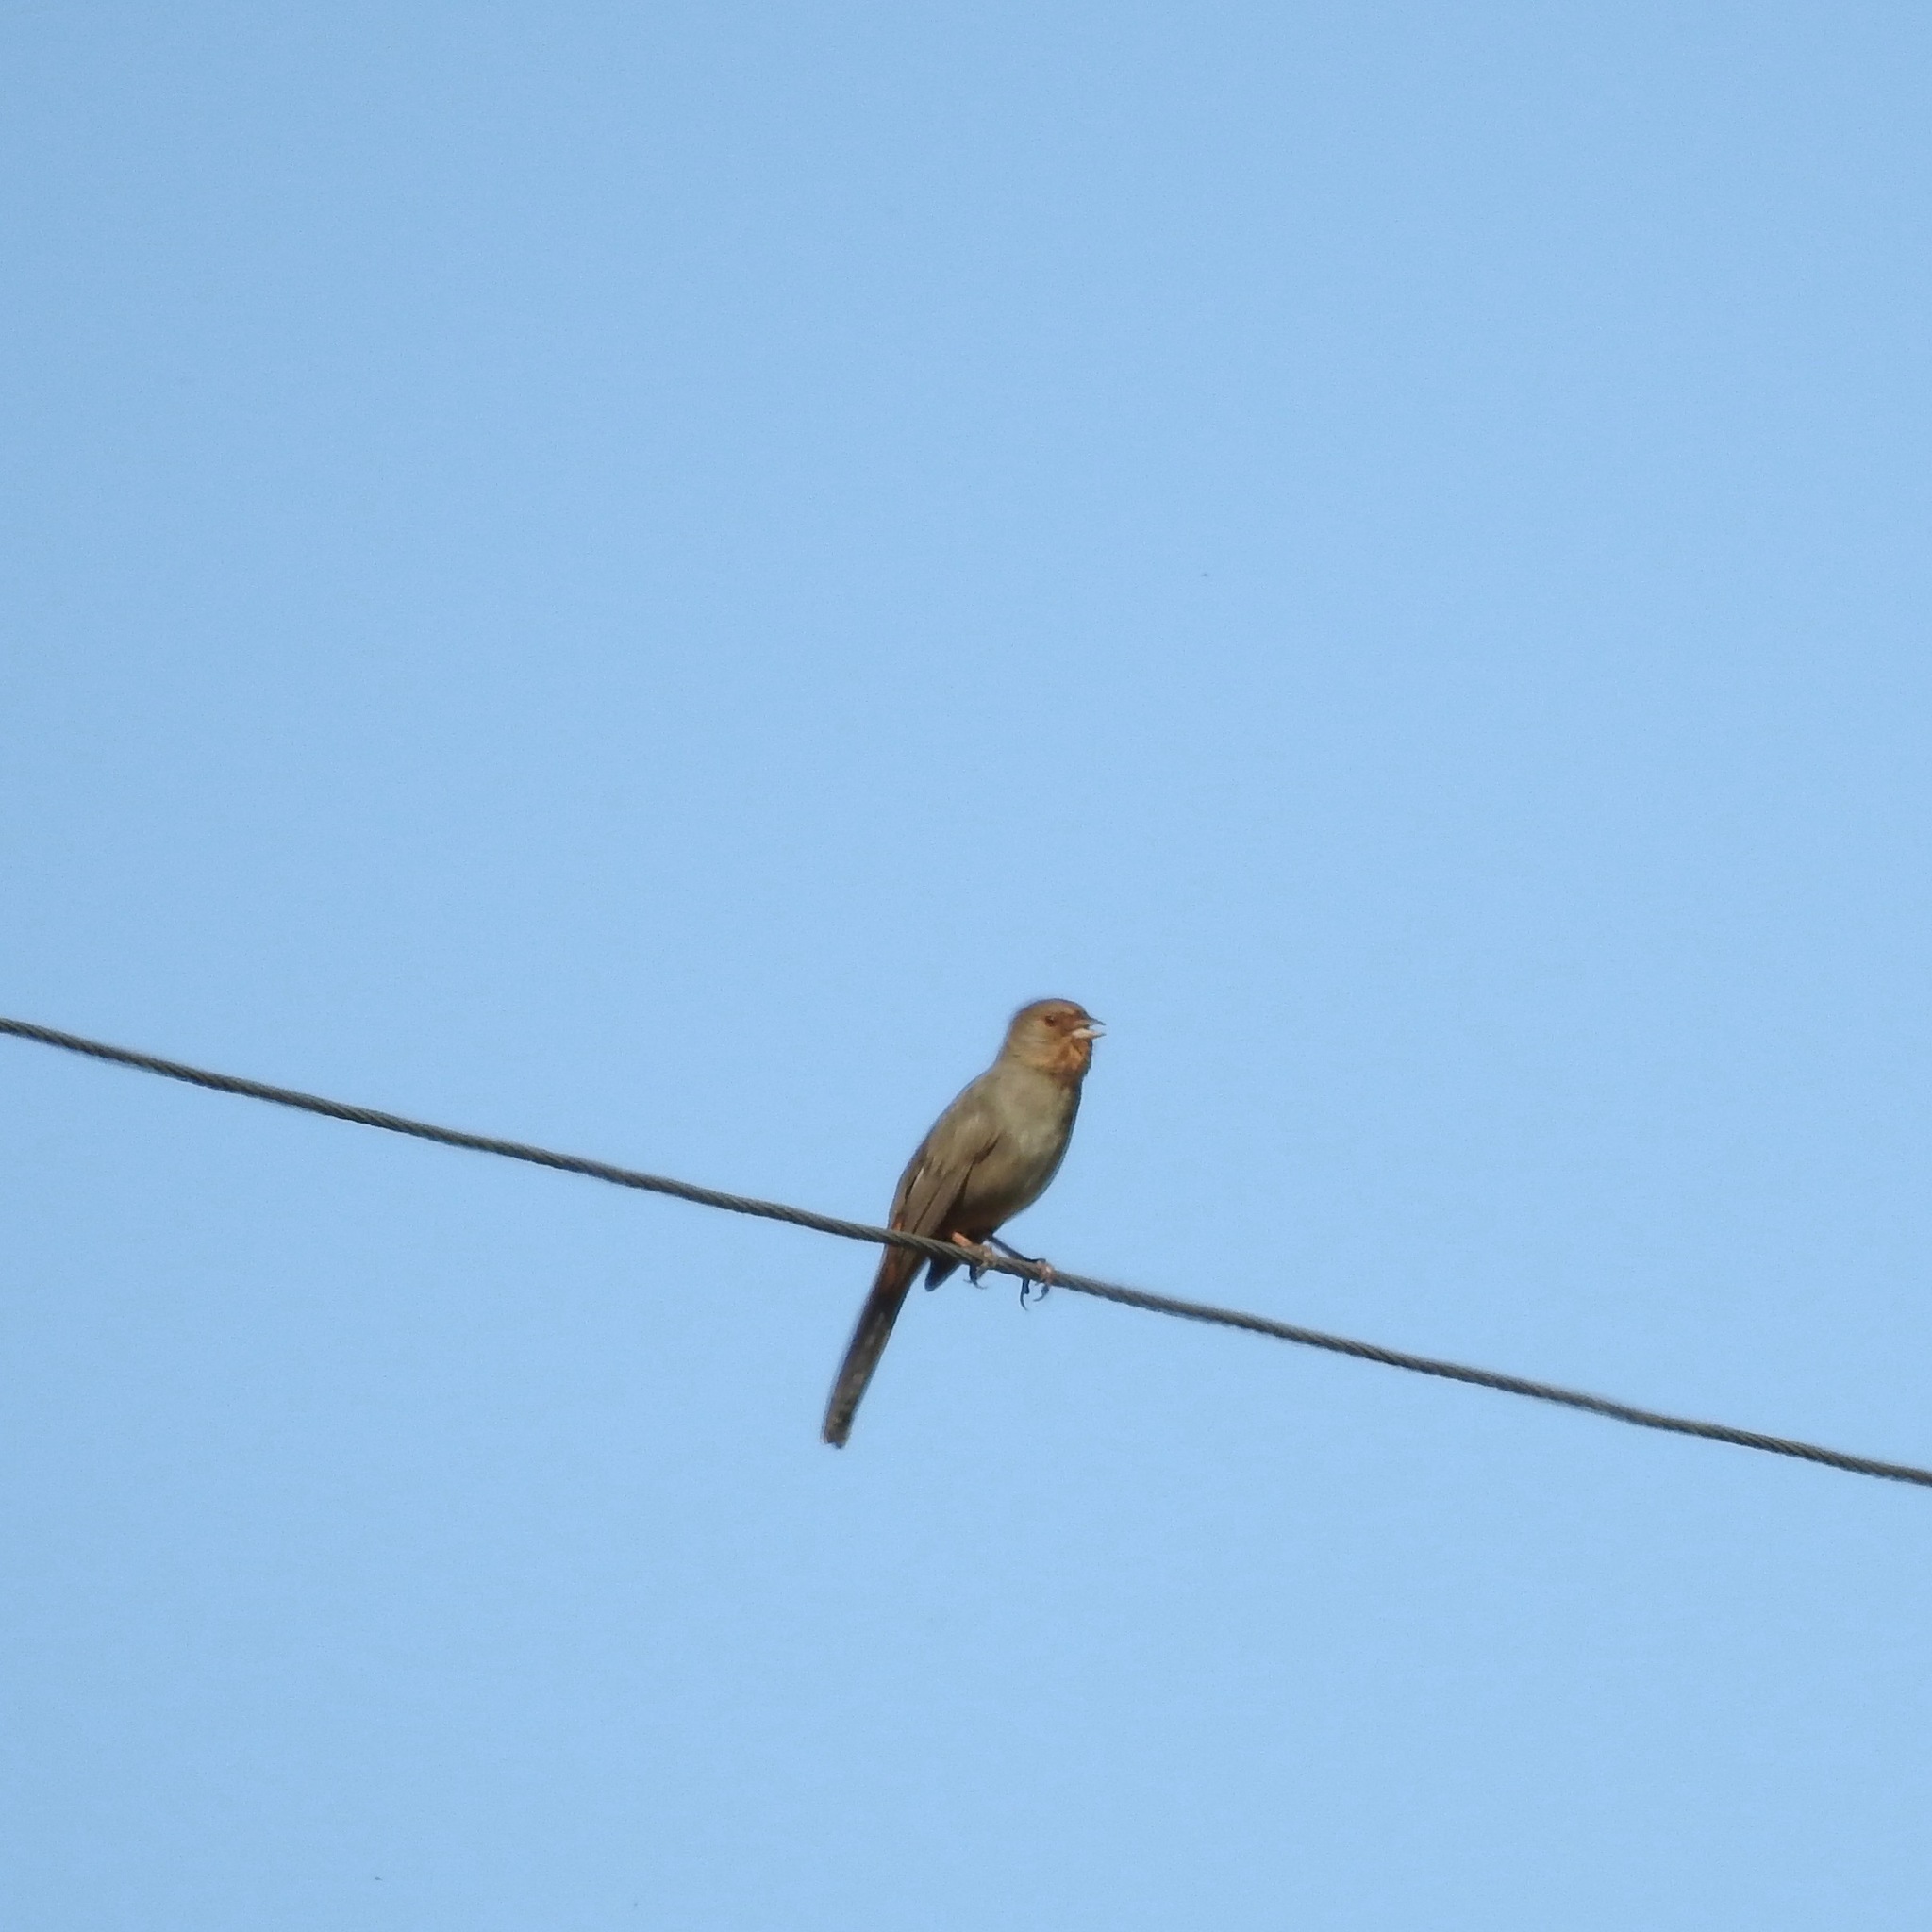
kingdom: Animalia
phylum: Chordata
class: Aves
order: Passeriformes
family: Passerellidae
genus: Melozone
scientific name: Melozone crissalis
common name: California towhee
